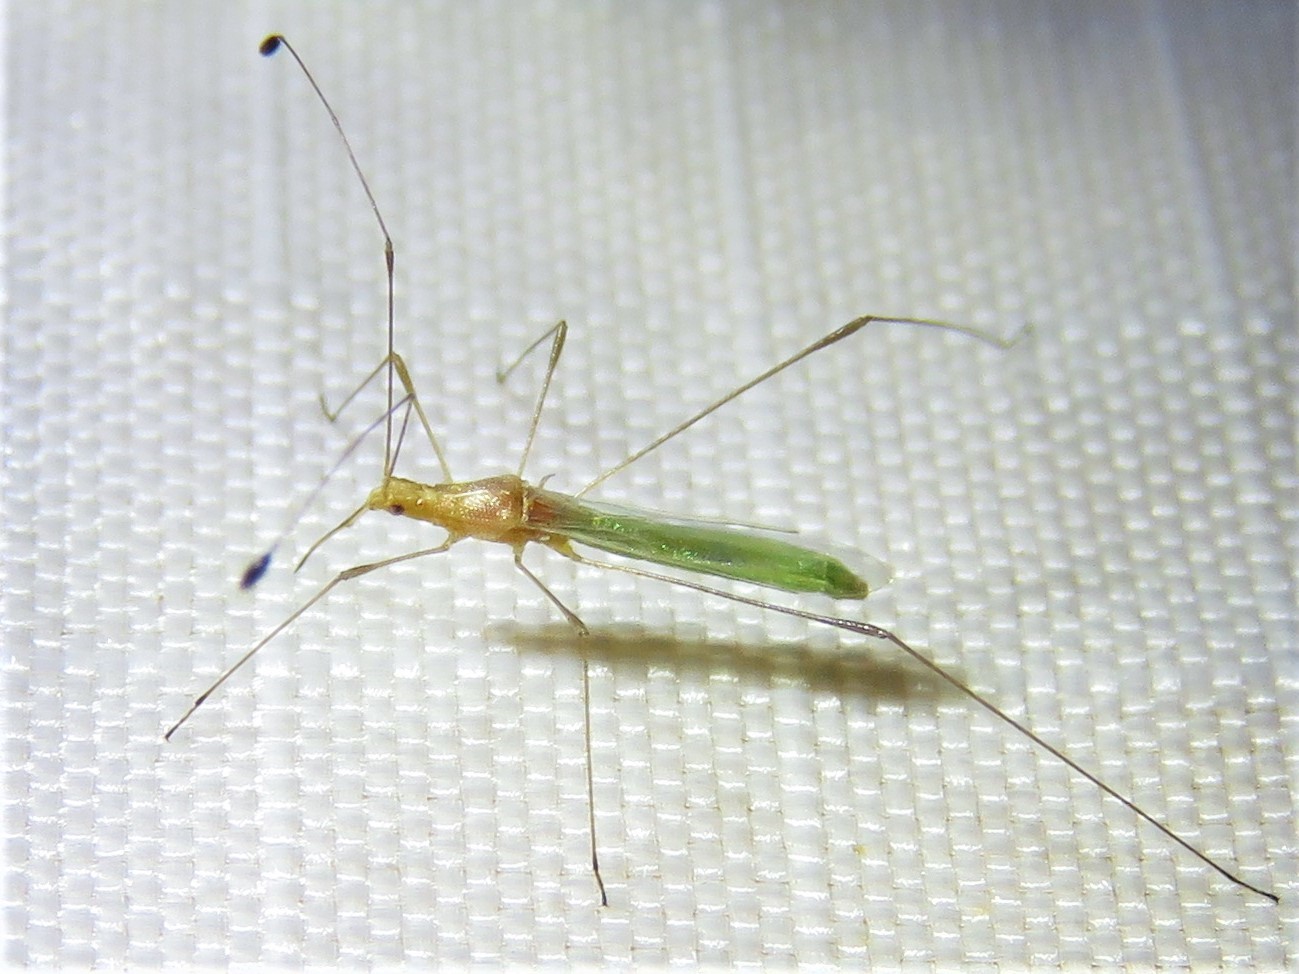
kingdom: Animalia
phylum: Arthropoda
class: Insecta
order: Hemiptera
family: Berytidae
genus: Metacanthus
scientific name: Metacanthus multispinus
